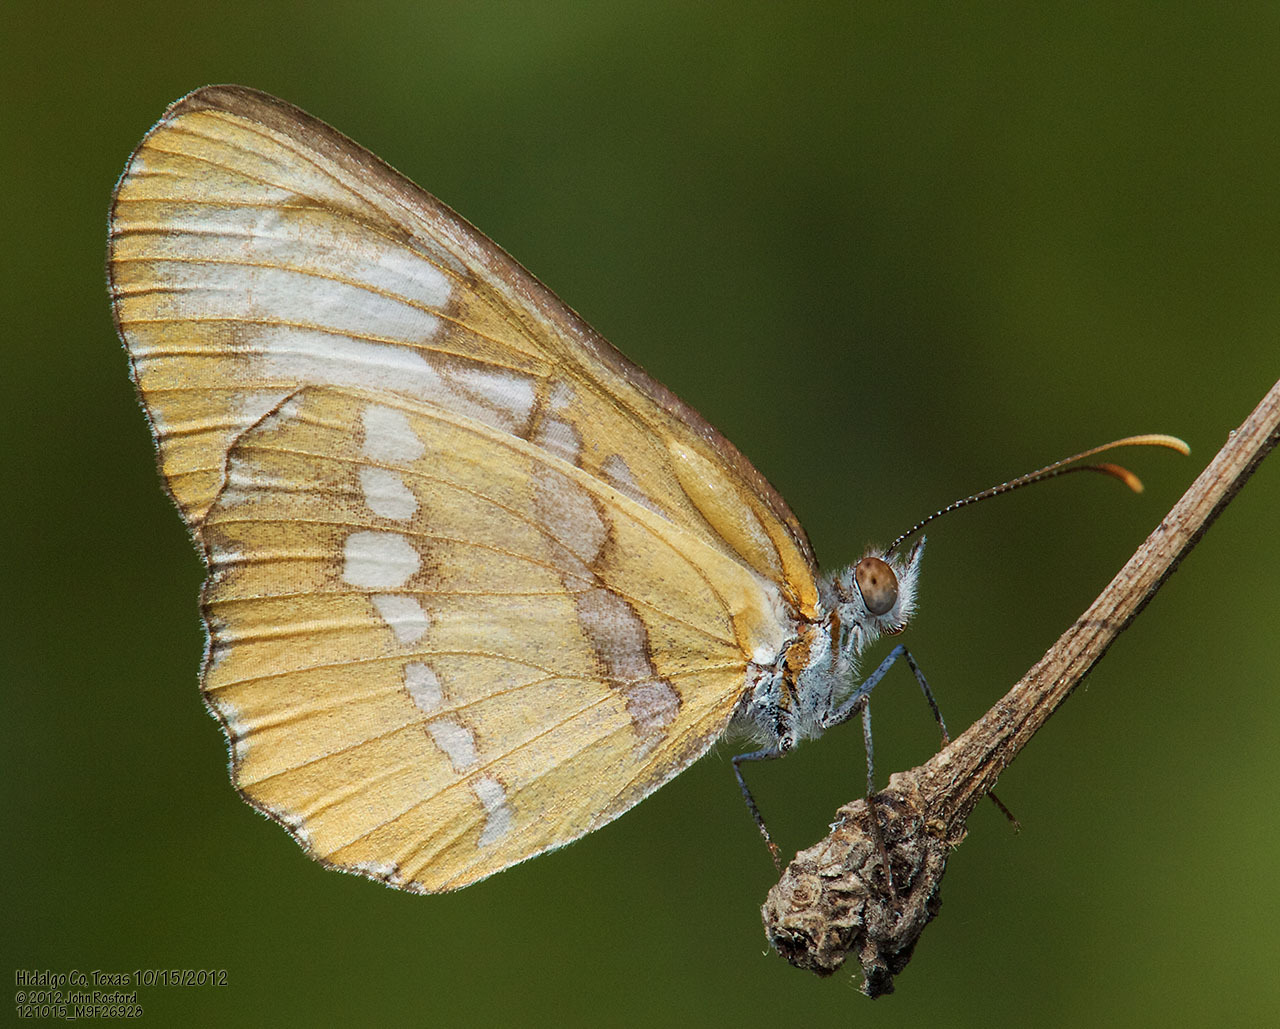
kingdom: Animalia
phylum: Arthropoda
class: Insecta
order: Lepidoptera
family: Nymphalidae
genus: Mestra
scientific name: Mestra amymone
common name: Common mestra
